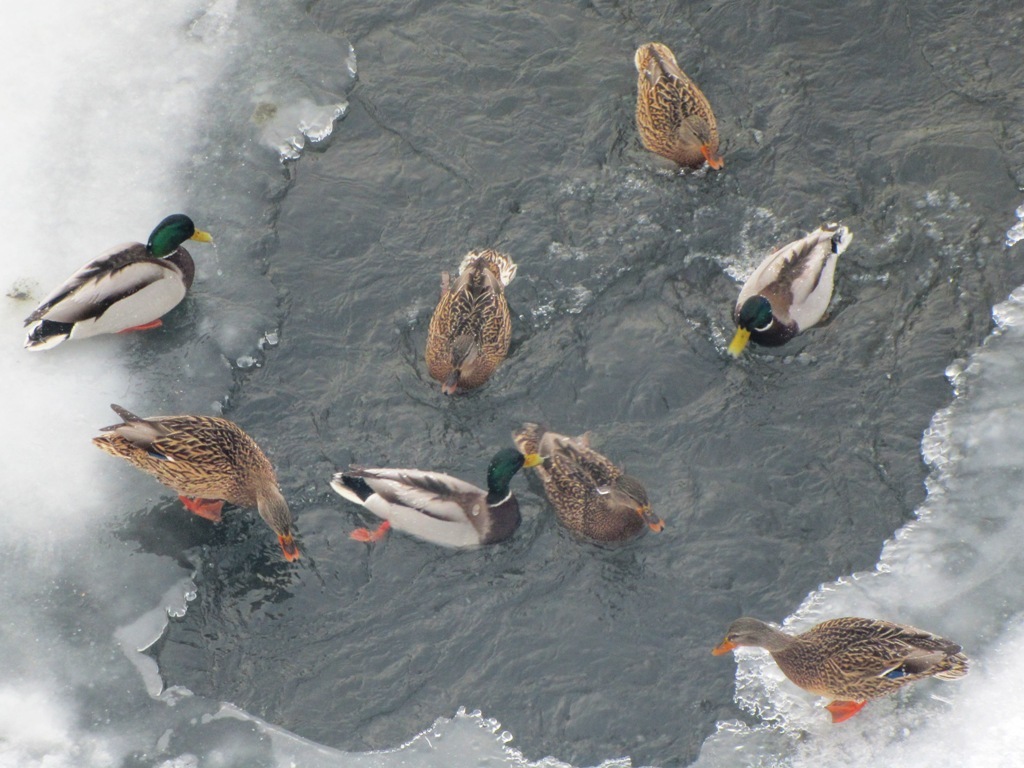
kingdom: Animalia
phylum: Chordata
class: Aves
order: Anseriformes
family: Anatidae
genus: Anas
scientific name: Anas platyrhynchos
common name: Mallard
